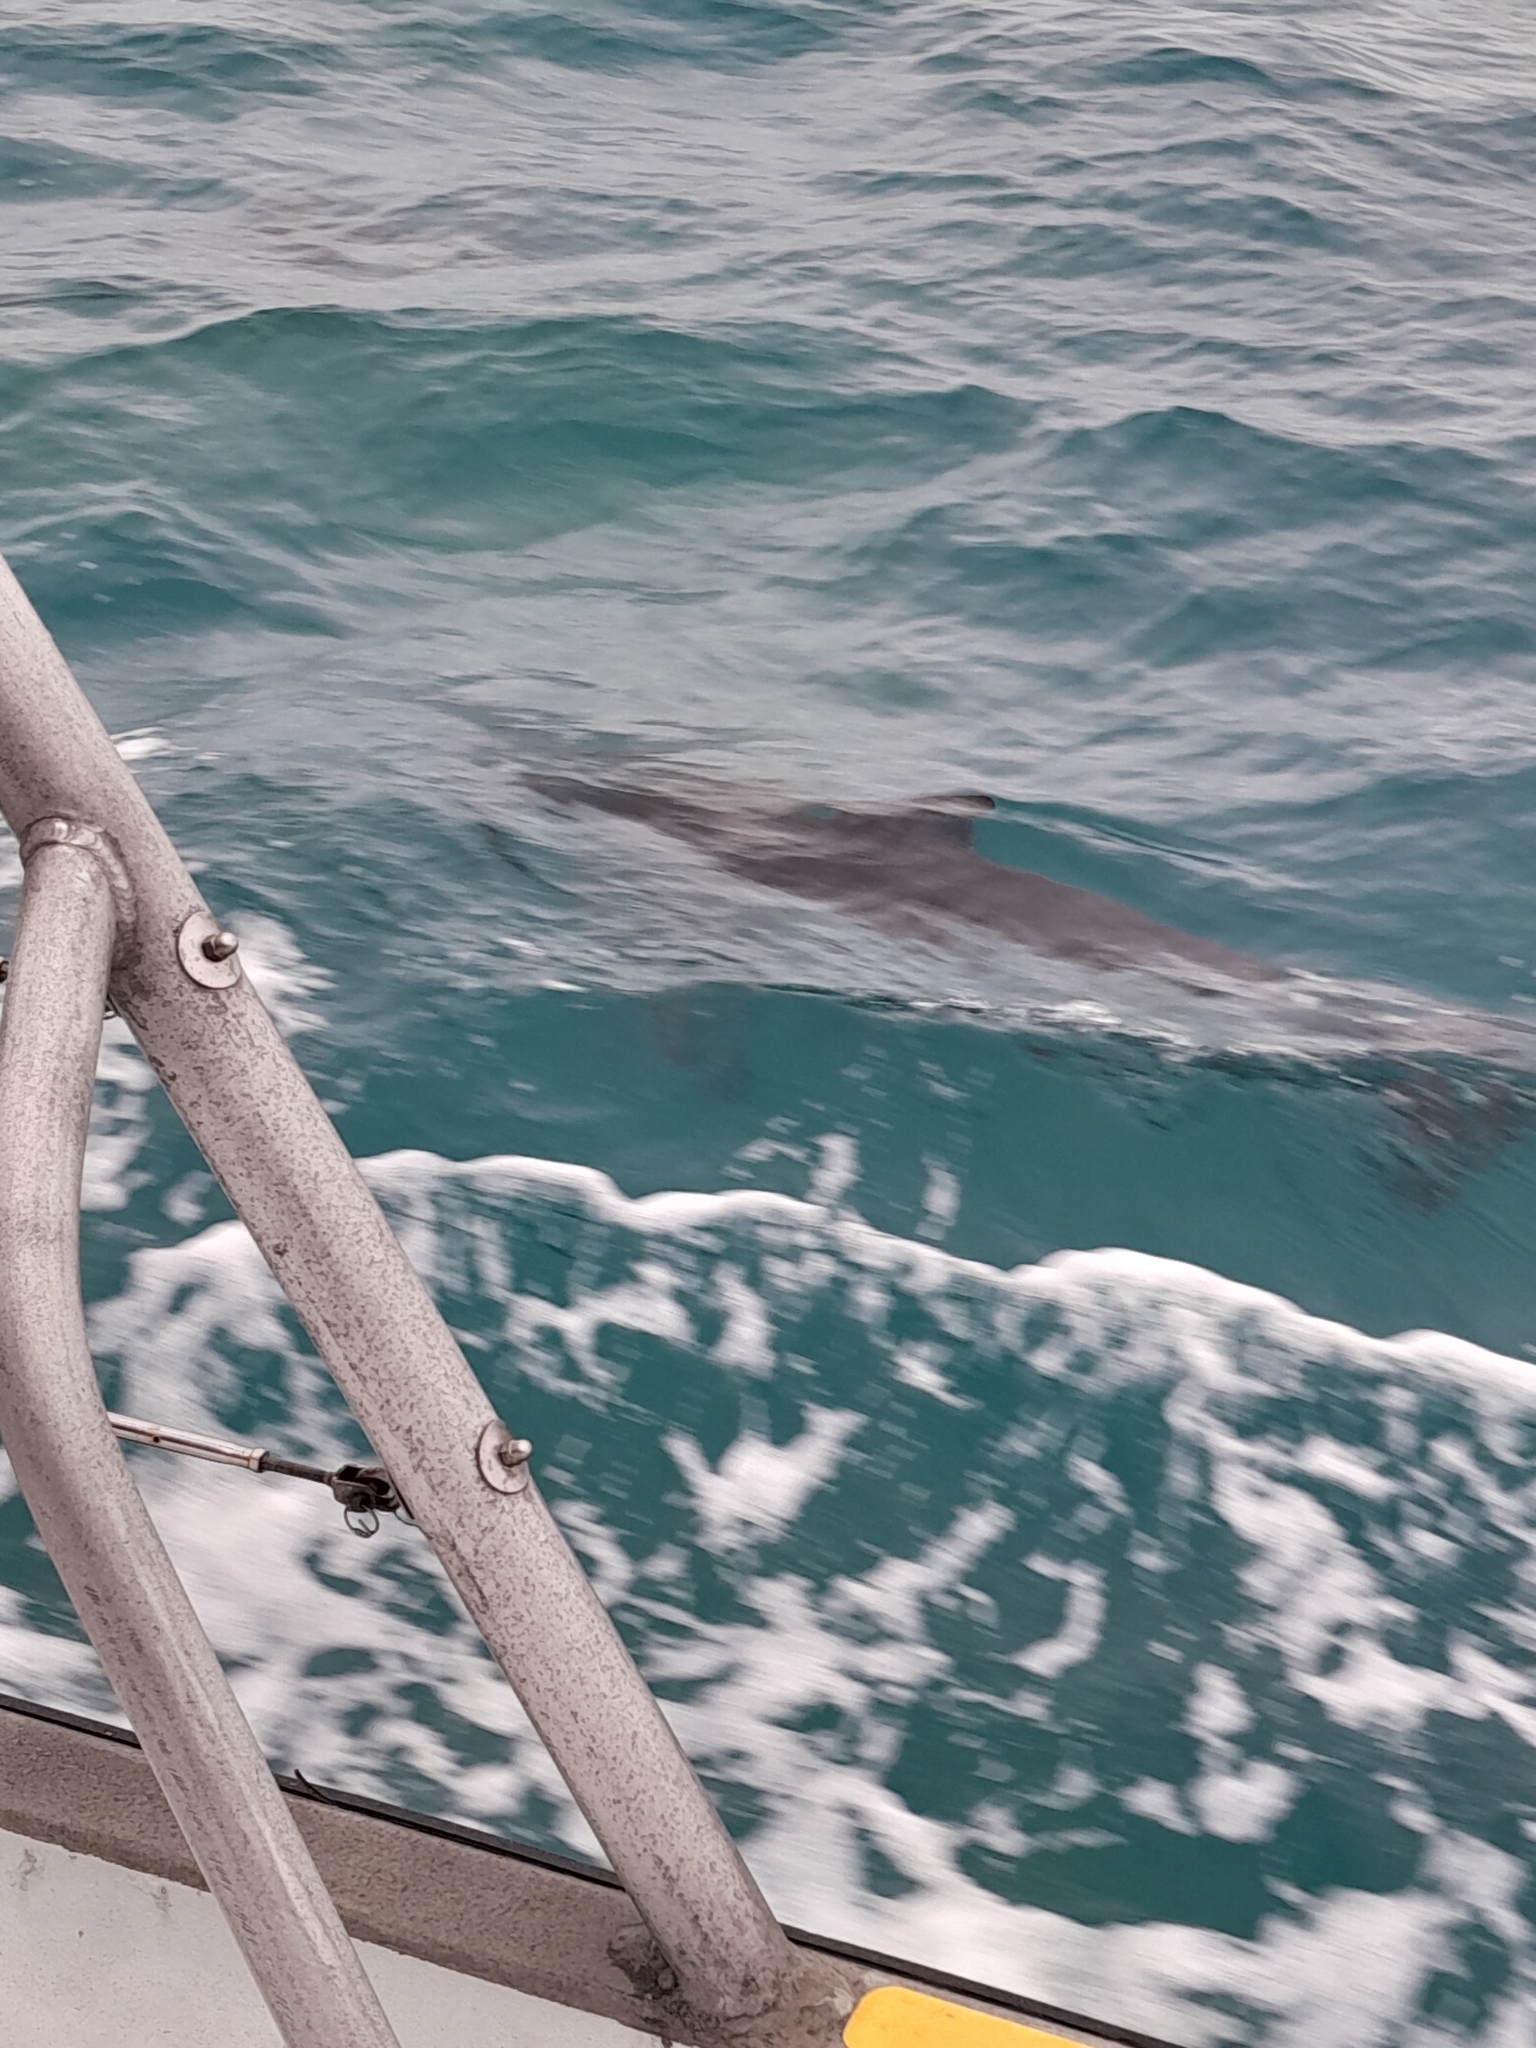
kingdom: Animalia
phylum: Chordata
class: Mammalia
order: Cetacea
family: Delphinidae
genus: Lagenorhynchus
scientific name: Lagenorhynchus obscurus
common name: Dusky dolphin
